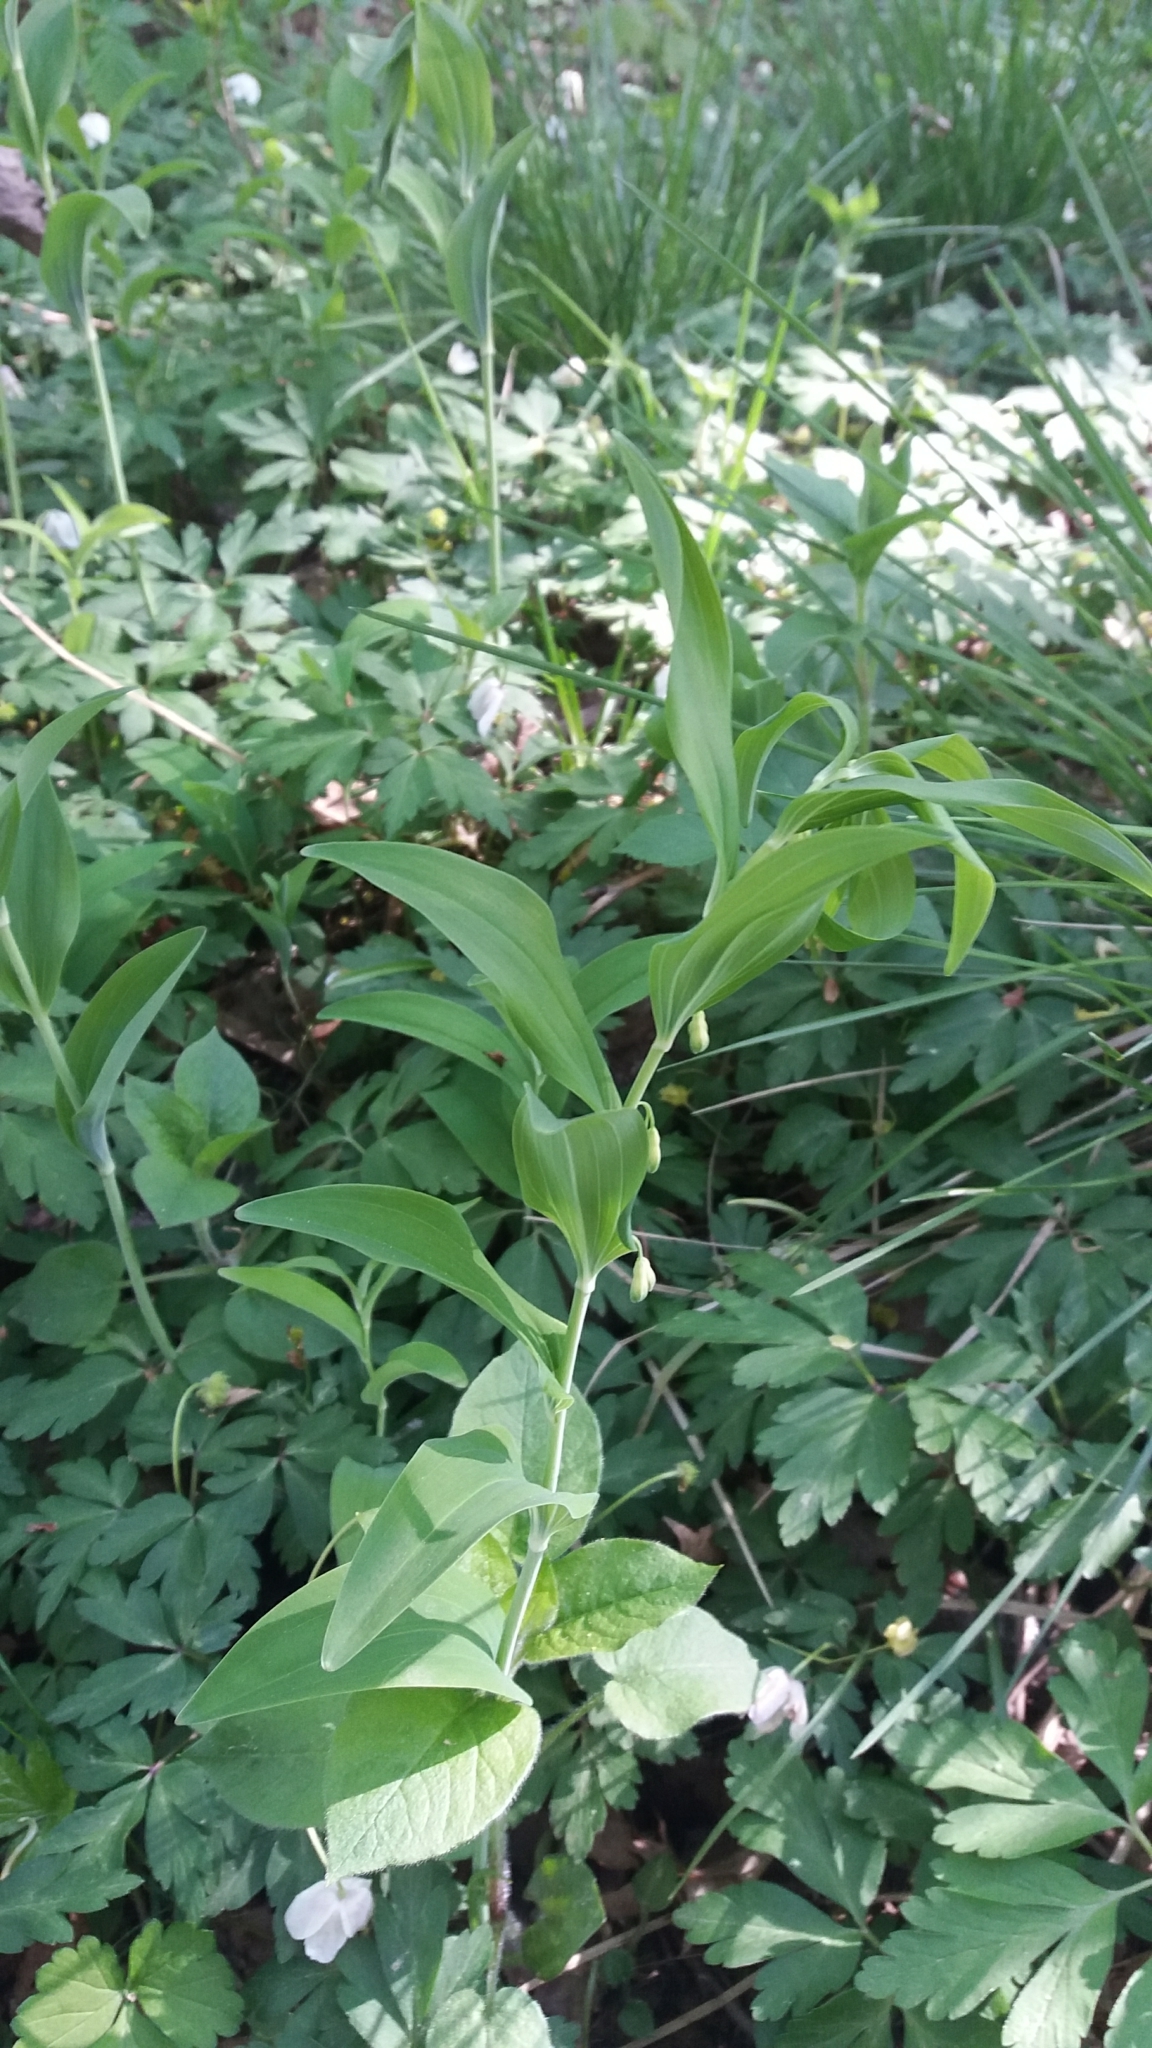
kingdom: Plantae
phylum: Tracheophyta
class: Liliopsida
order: Asparagales
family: Asparagaceae
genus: Polygonatum
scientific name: Polygonatum multiflorum
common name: Solomon's-seal
